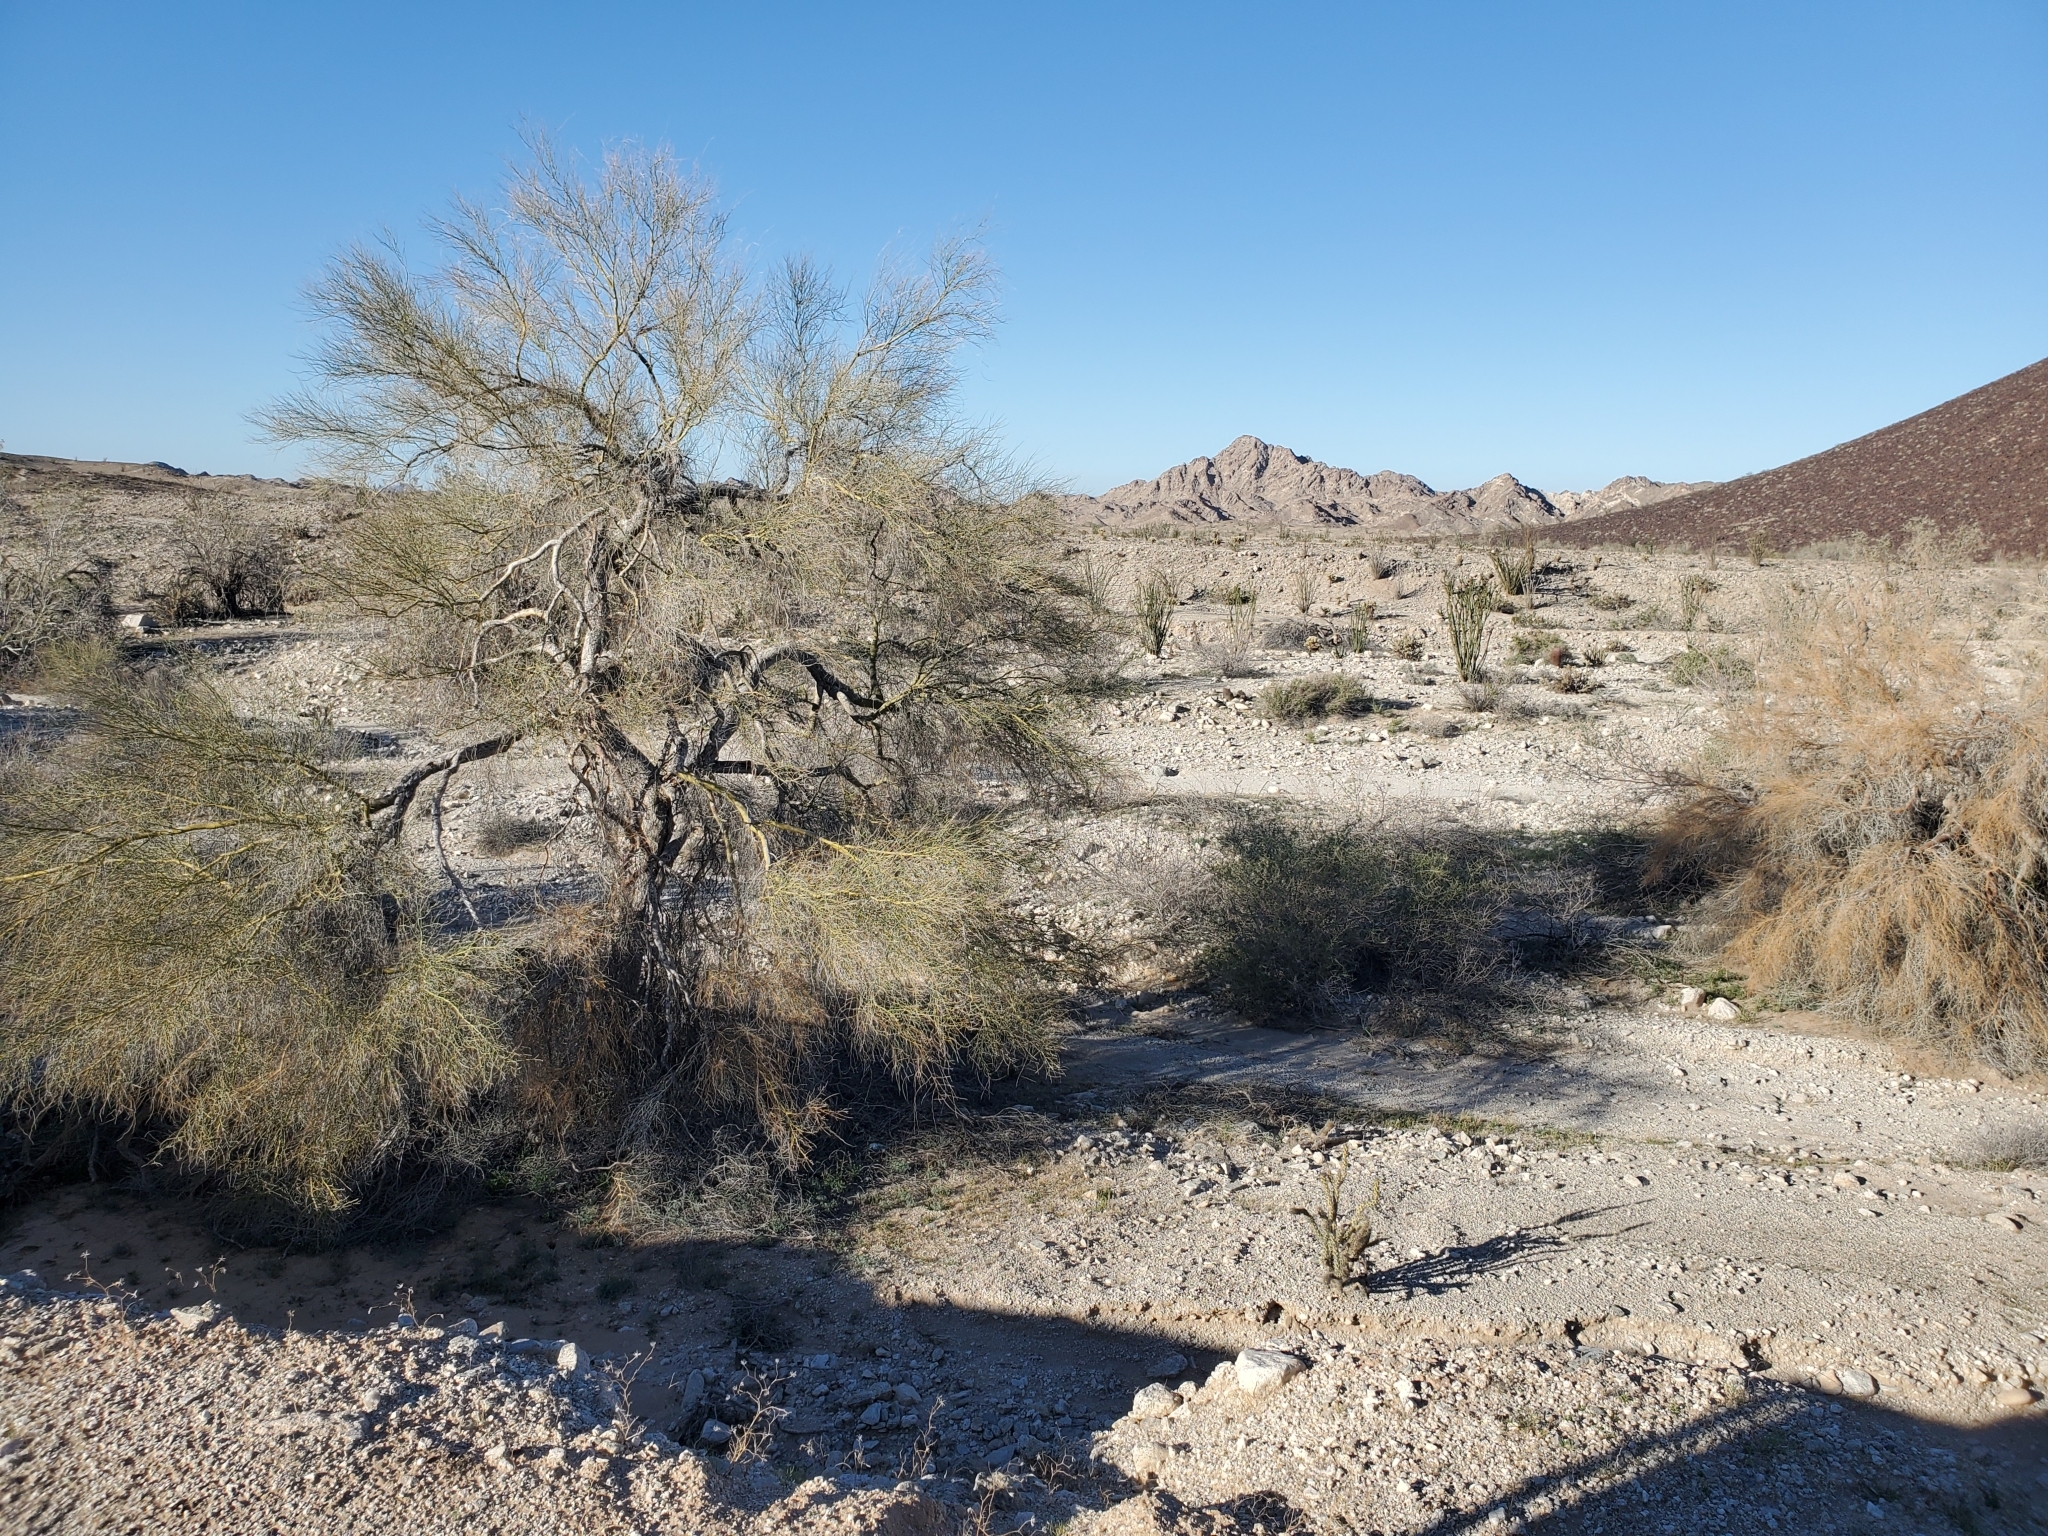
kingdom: Plantae
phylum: Tracheophyta
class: Magnoliopsida
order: Fabales
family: Fabaceae
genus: Parkinsonia
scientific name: Parkinsonia florida
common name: Blue paloverde
